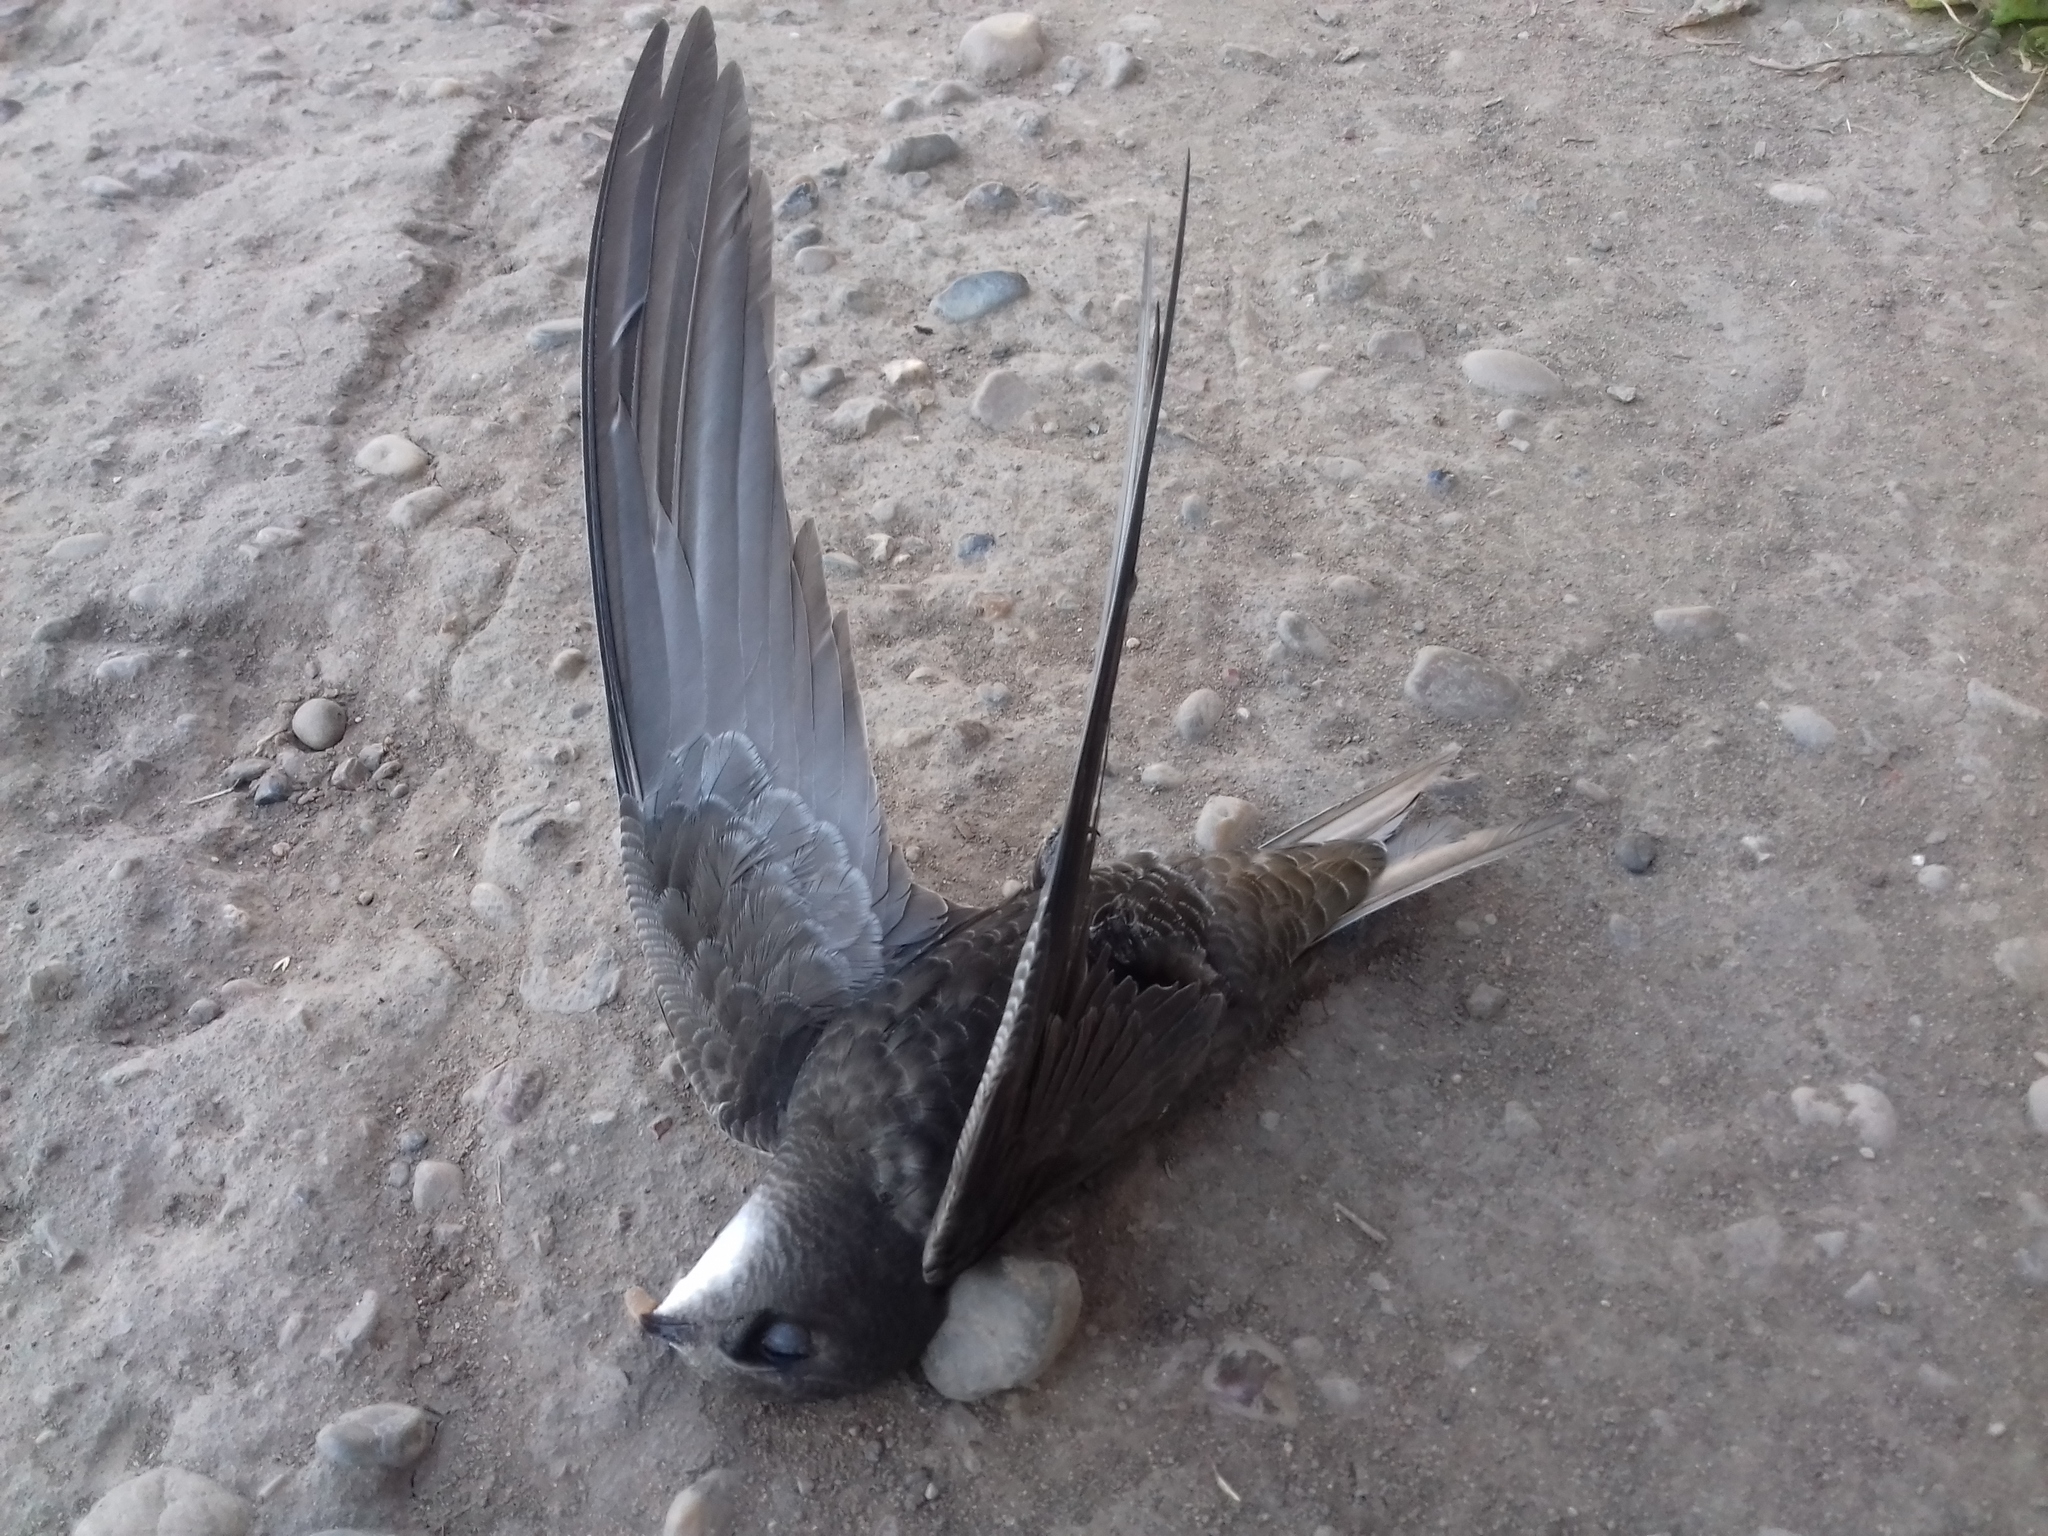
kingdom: Animalia
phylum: Chordata
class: Aves
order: Apodiformes
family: Apodidae
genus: Apus
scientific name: Apus apus
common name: Common swift
